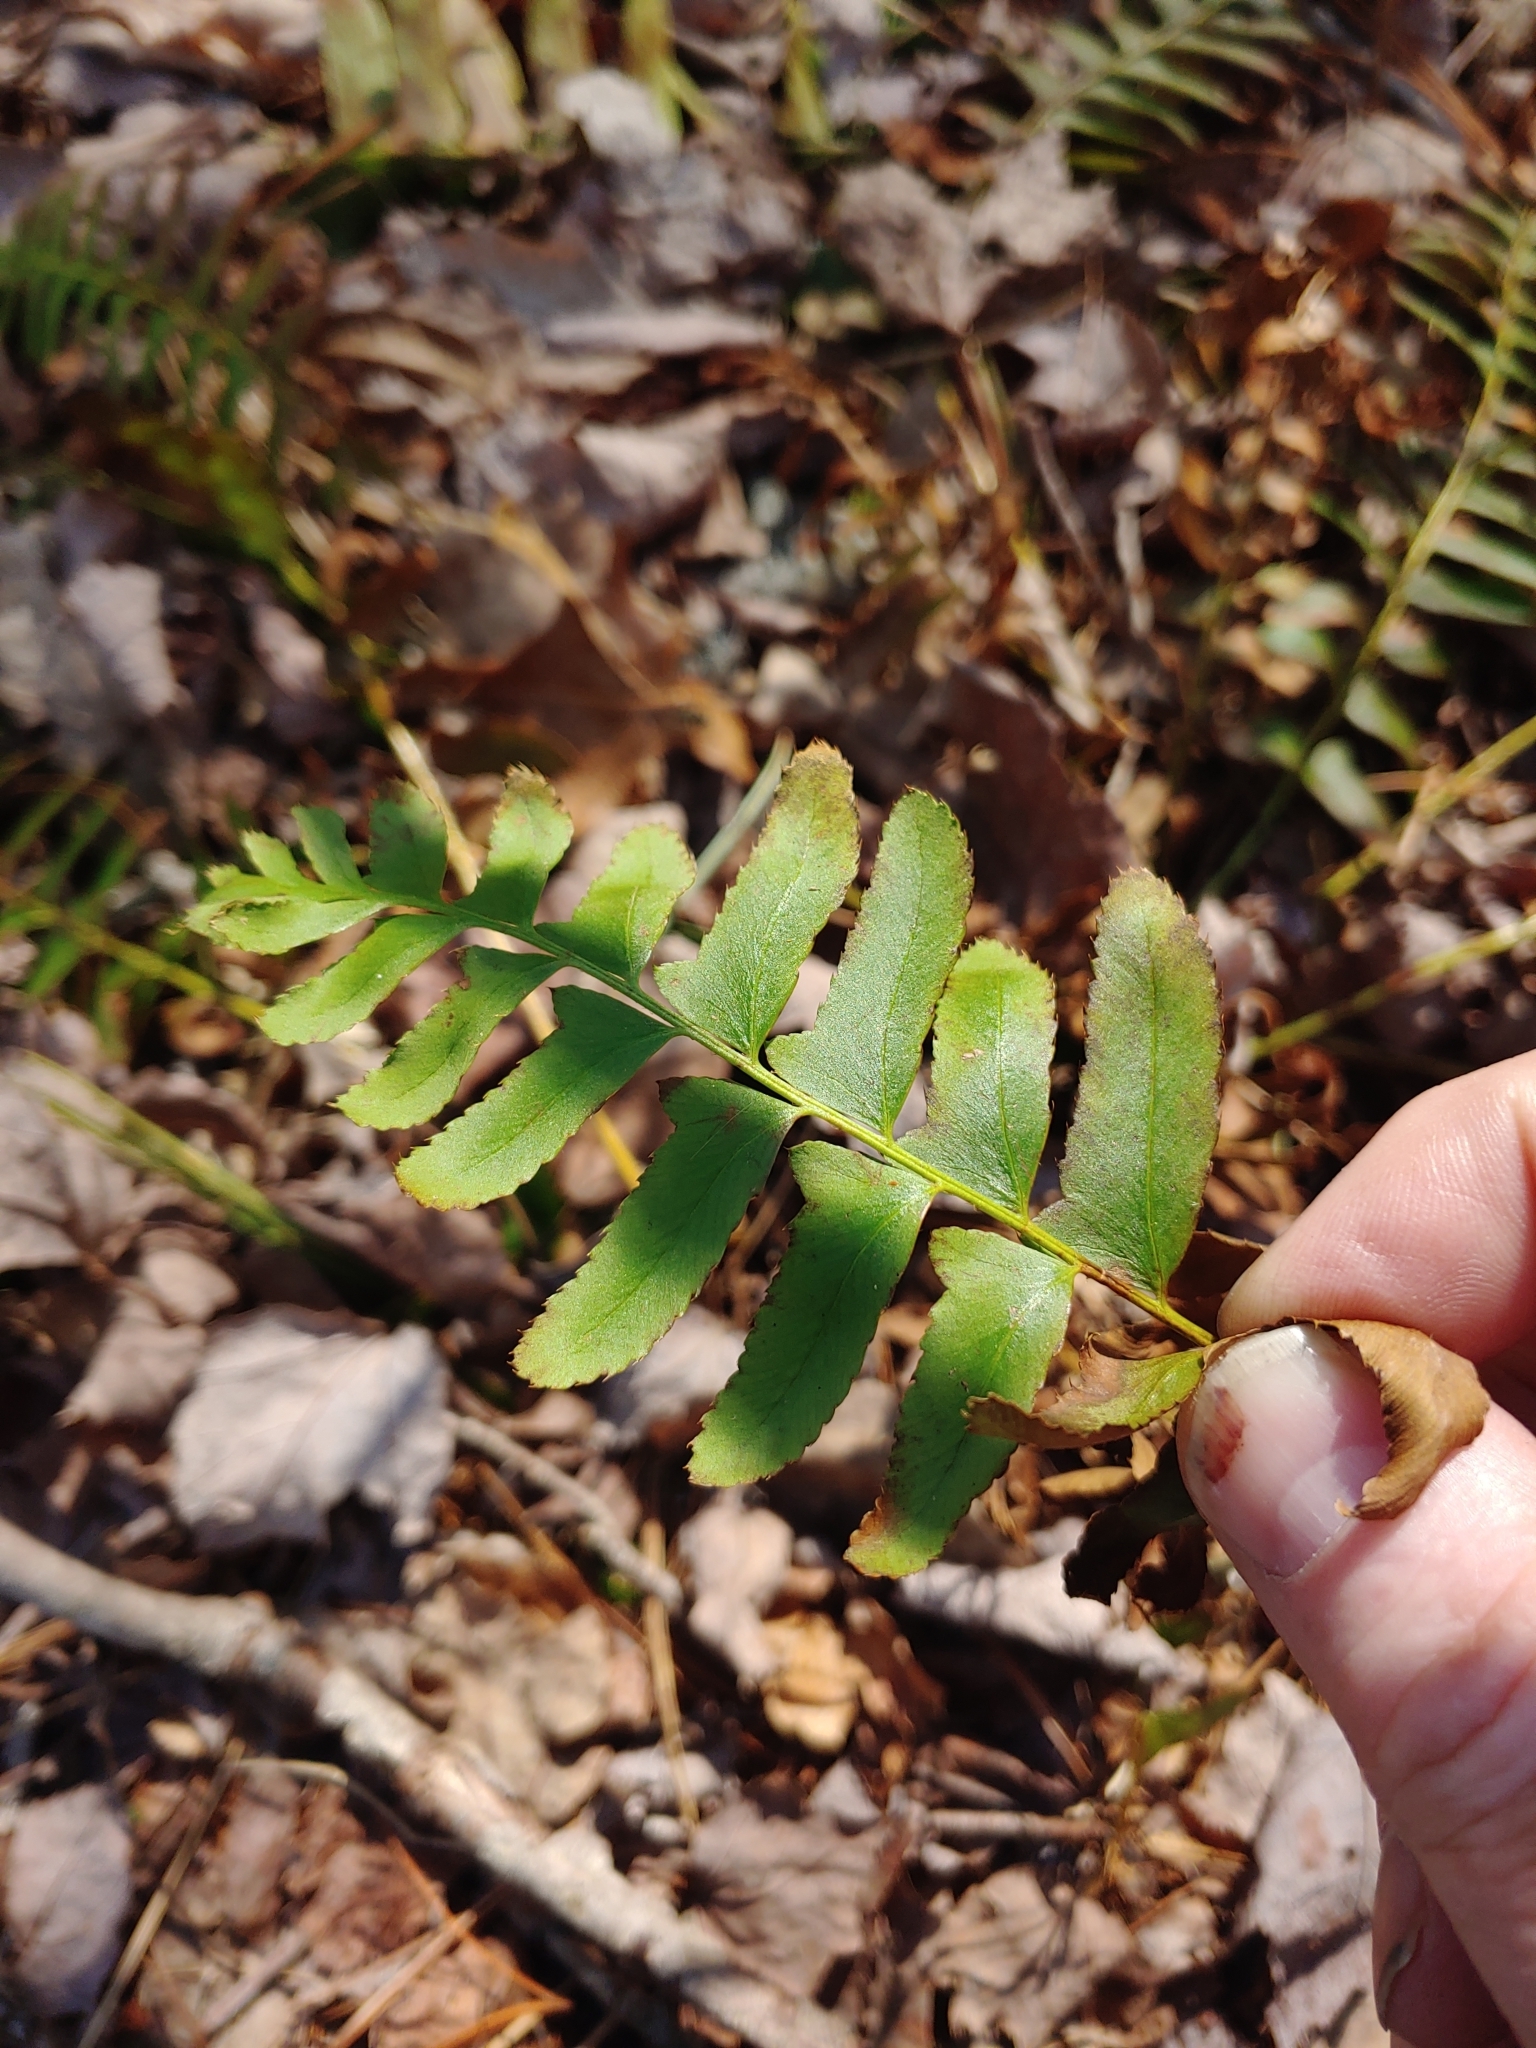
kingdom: Plantae
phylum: Tracheophyta
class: Polypodiopsida
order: Polypodiales
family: Dryopteridaceae
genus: Polystichum
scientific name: Polystichum acrostichoides
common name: Christmas fern
